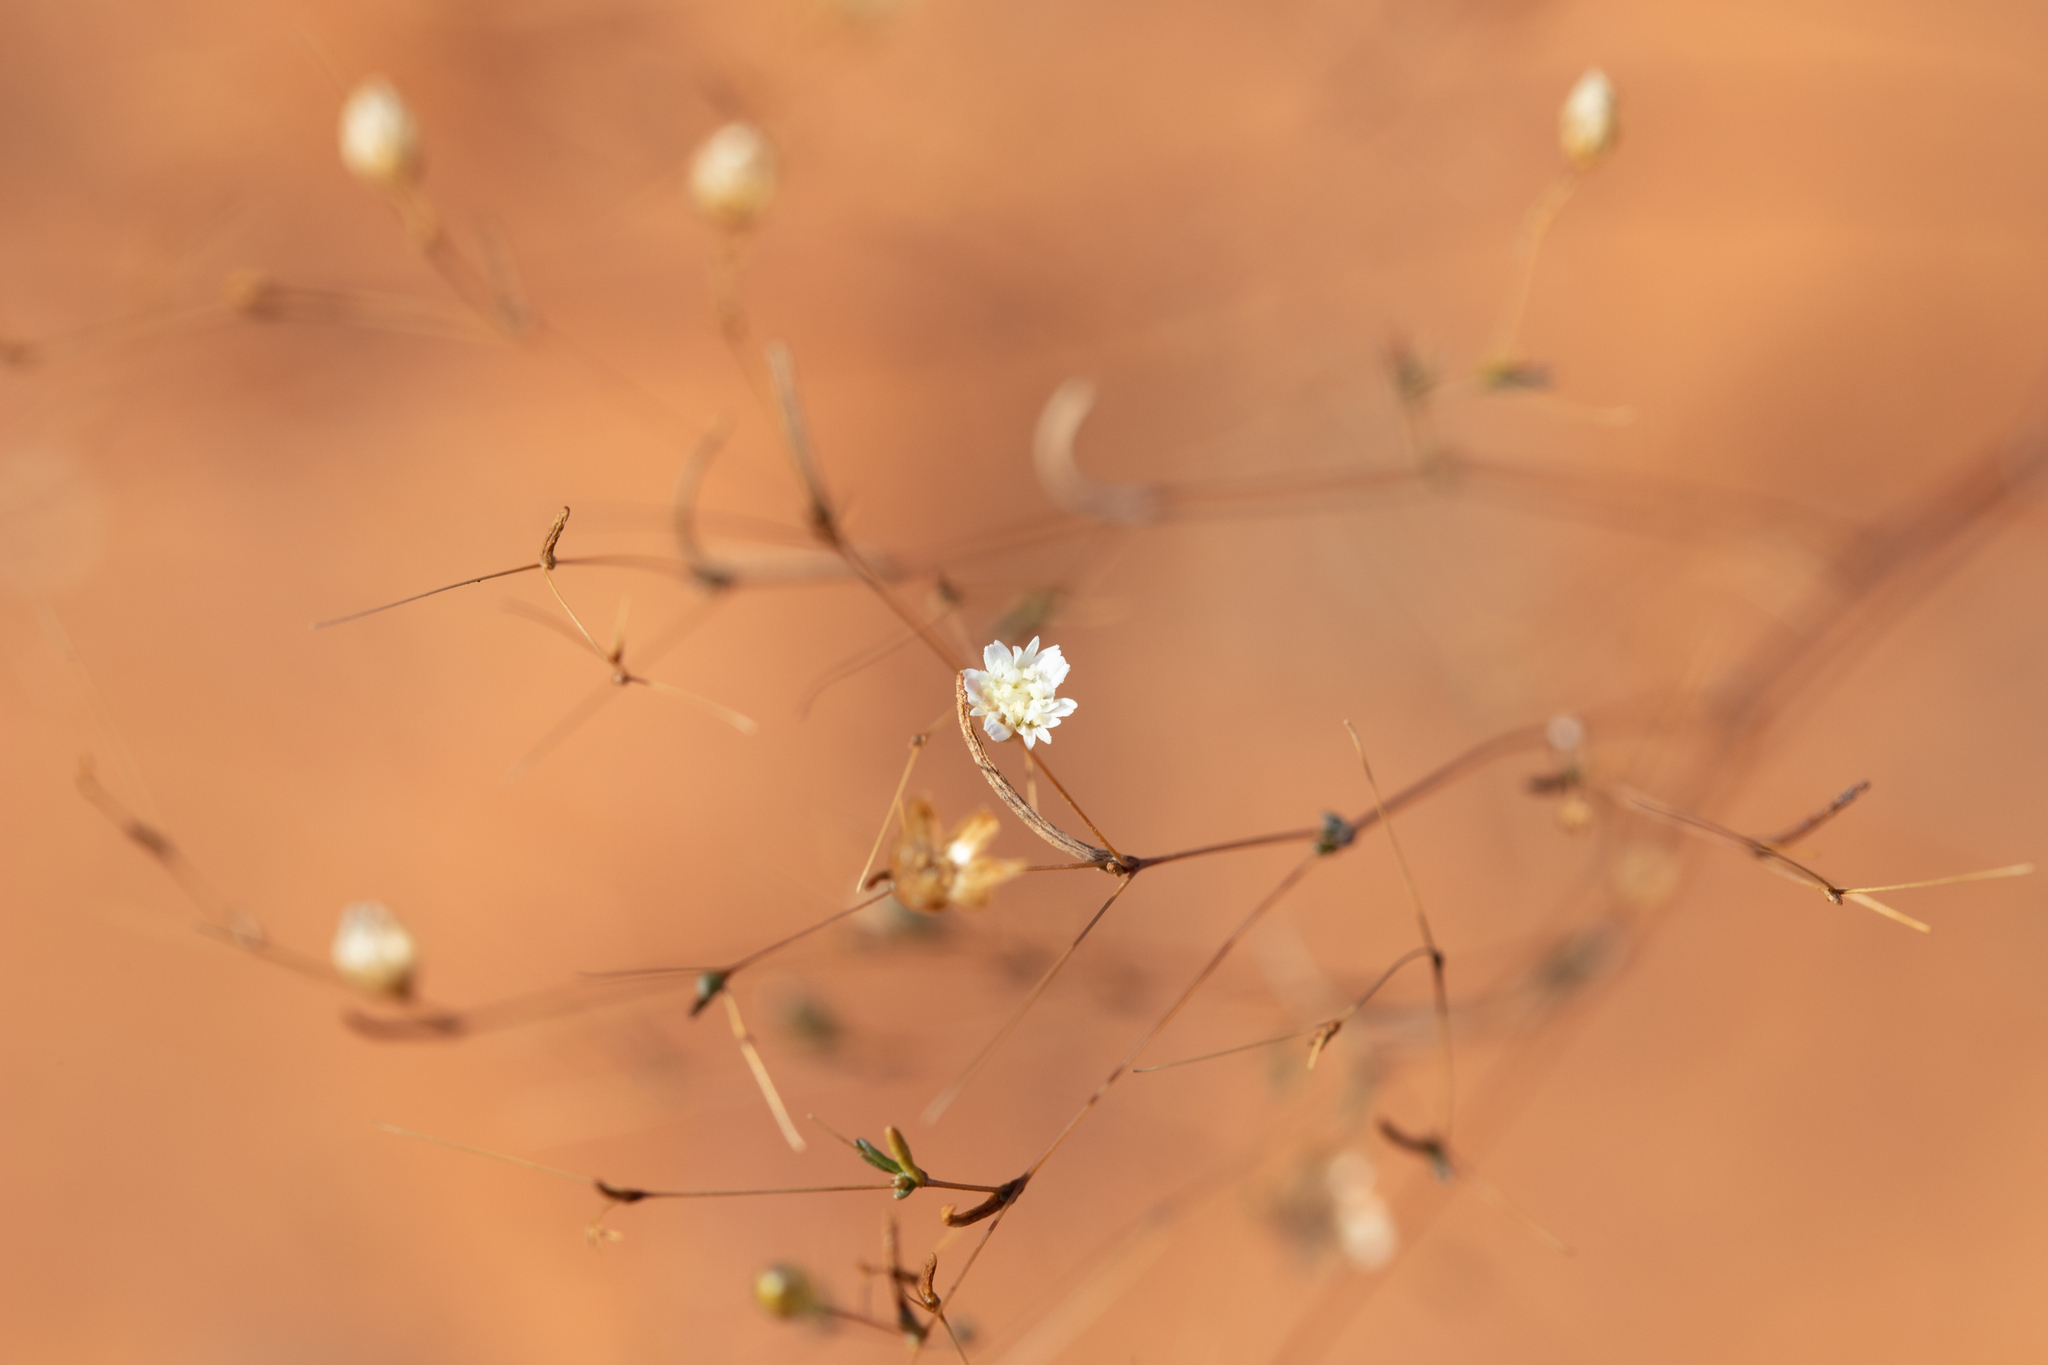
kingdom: Plantae
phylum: Tracheophyta
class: Magnoliopsida
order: Asterales
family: Asteraceae
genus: Siemssenia
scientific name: Siemssenia capillaris
